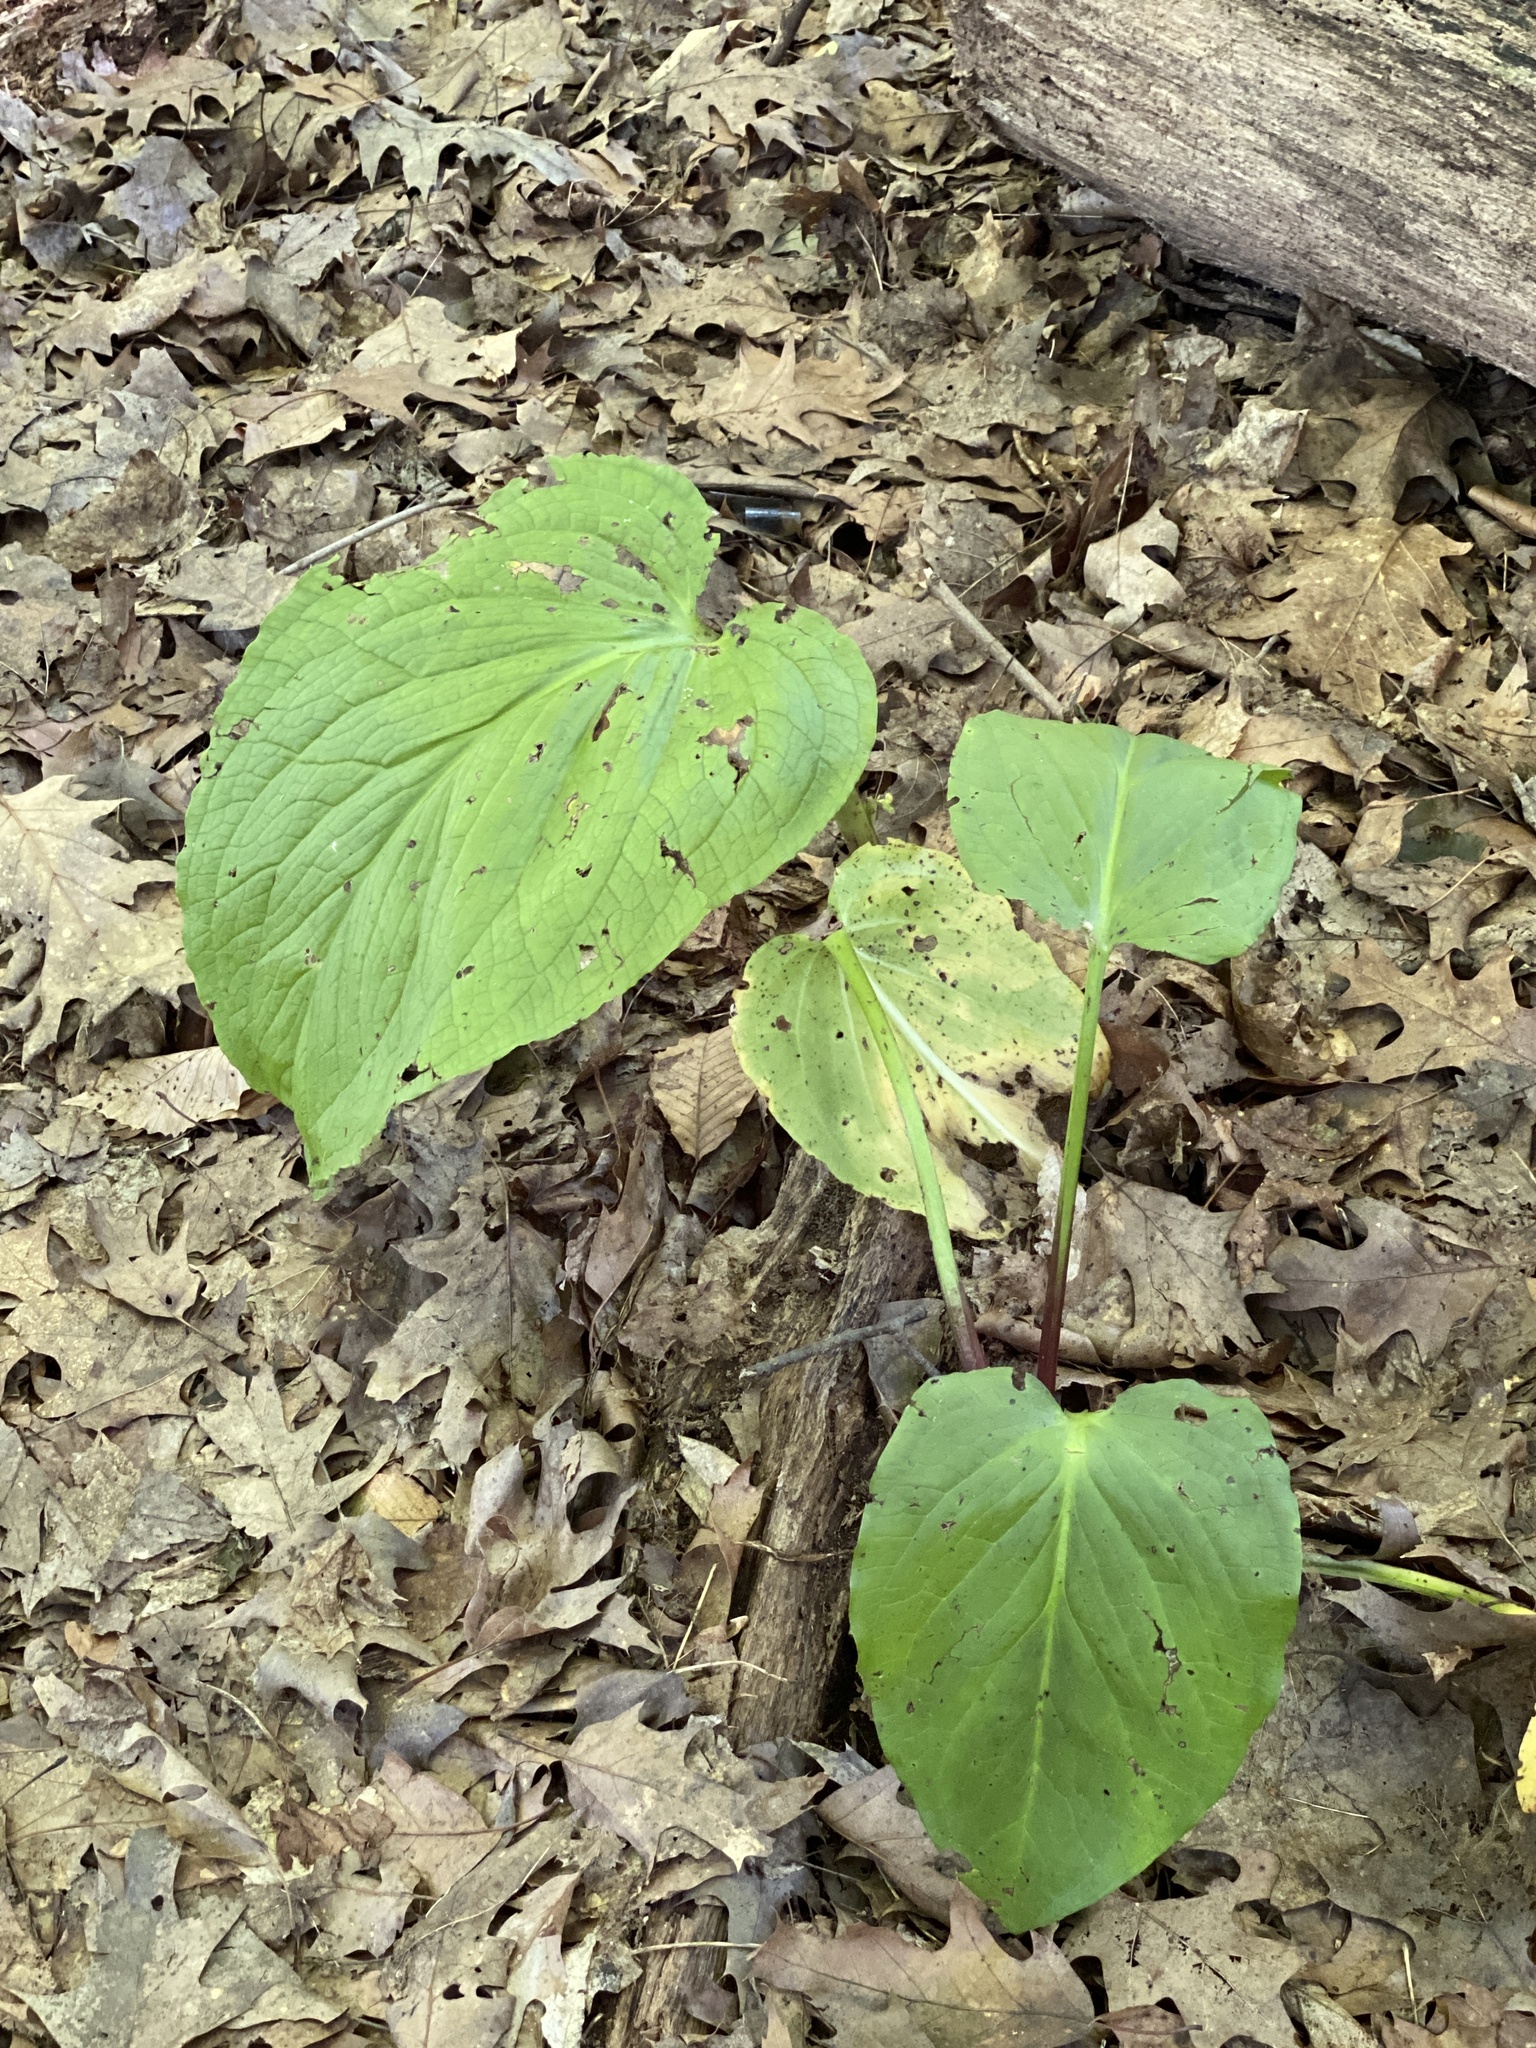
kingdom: Plantae
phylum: Tracheophyta
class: Liliopsida
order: Alismatales
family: Araceae
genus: Symplocarpus
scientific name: Symplocarpus foetidus
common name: Eastern skunk cabbage
